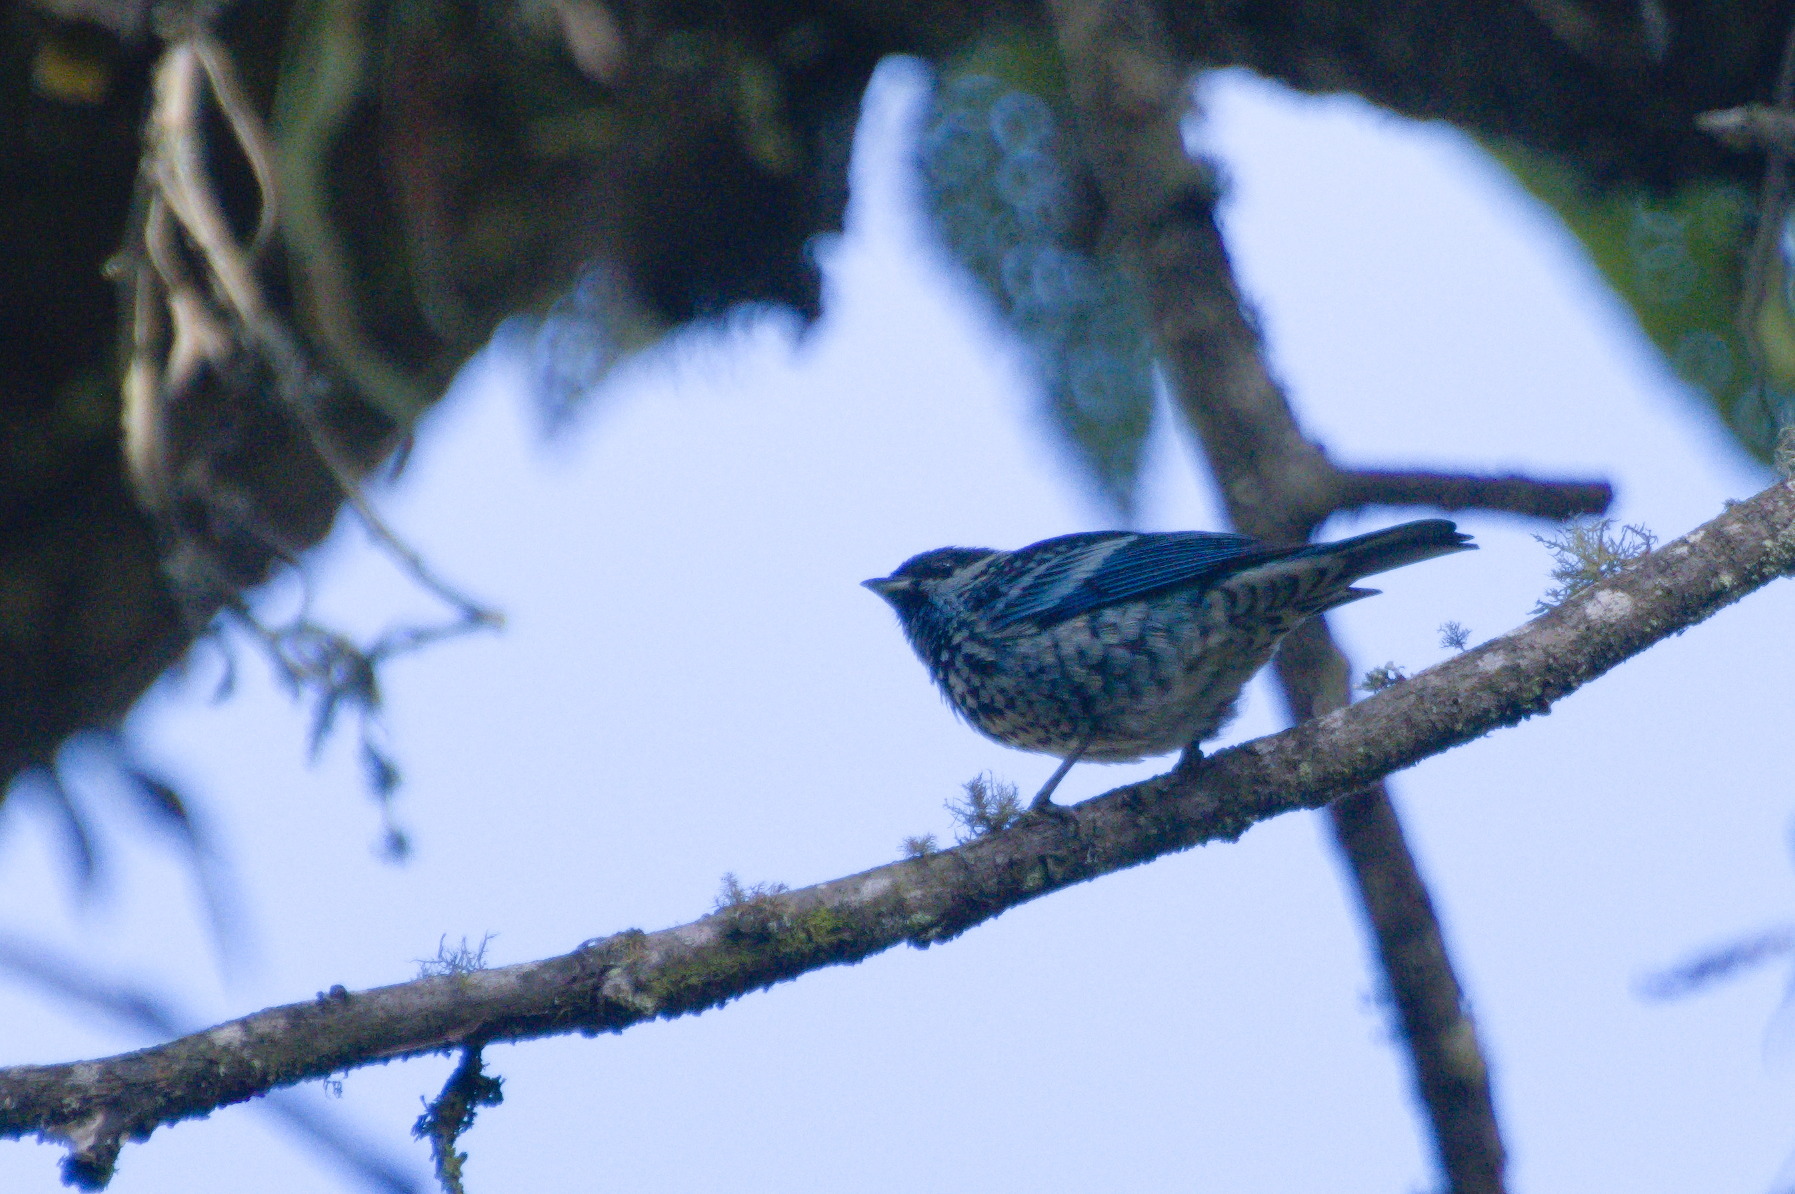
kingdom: Animalia
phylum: Chordata
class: Aves
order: Passeriformes
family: Thraupidae
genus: Tangara
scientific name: Tangara nigroviridis
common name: Beryl-spangled tanager
